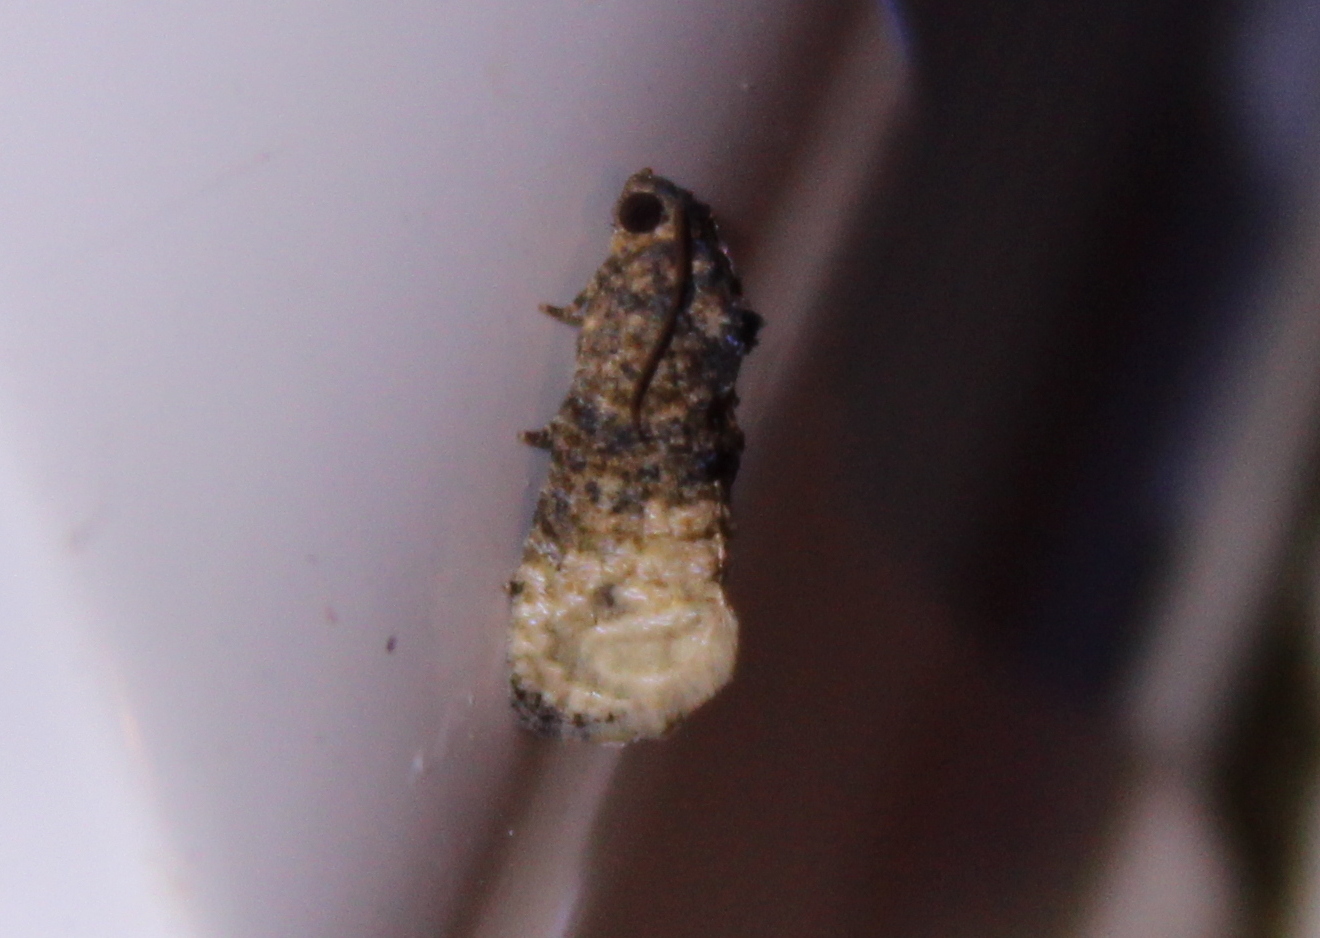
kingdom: Animalia
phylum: Arthropoda
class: Insecta
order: Lepidoptera
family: Tortricidae
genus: Ecdytolopha
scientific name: Ecdytolopha mana
